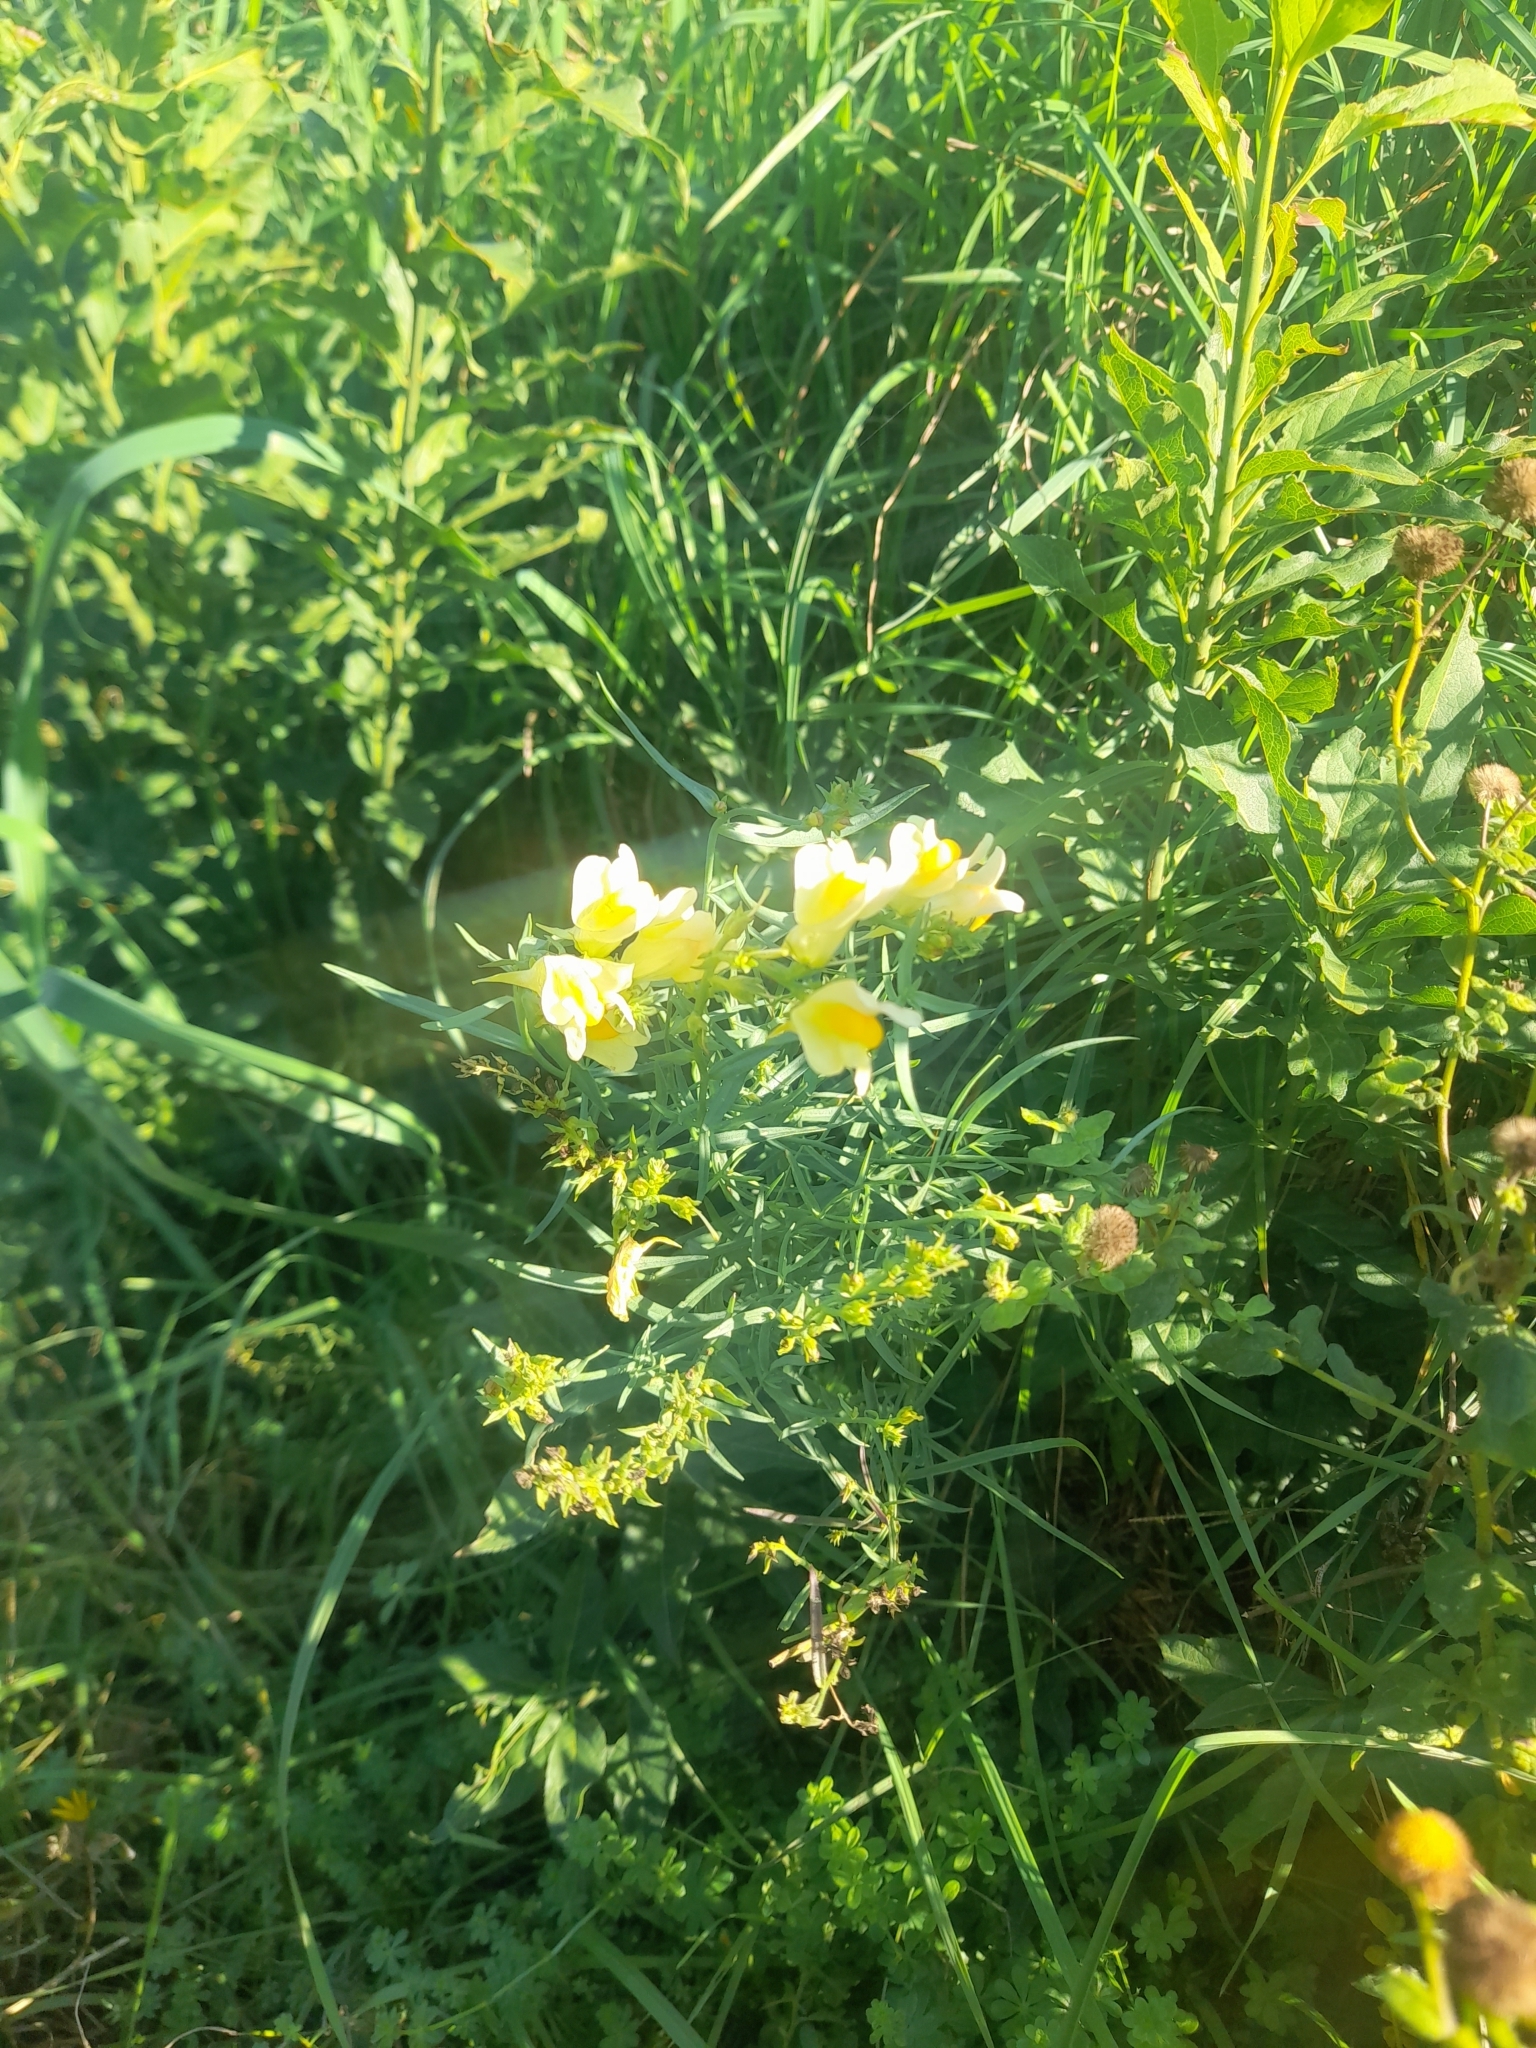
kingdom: Plantae
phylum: Tracheophyta
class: Magnoliopsida
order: Lamiales
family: Plantaginaceae
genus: Linaria
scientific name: Linaria vulgaris
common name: Butter and eggs
